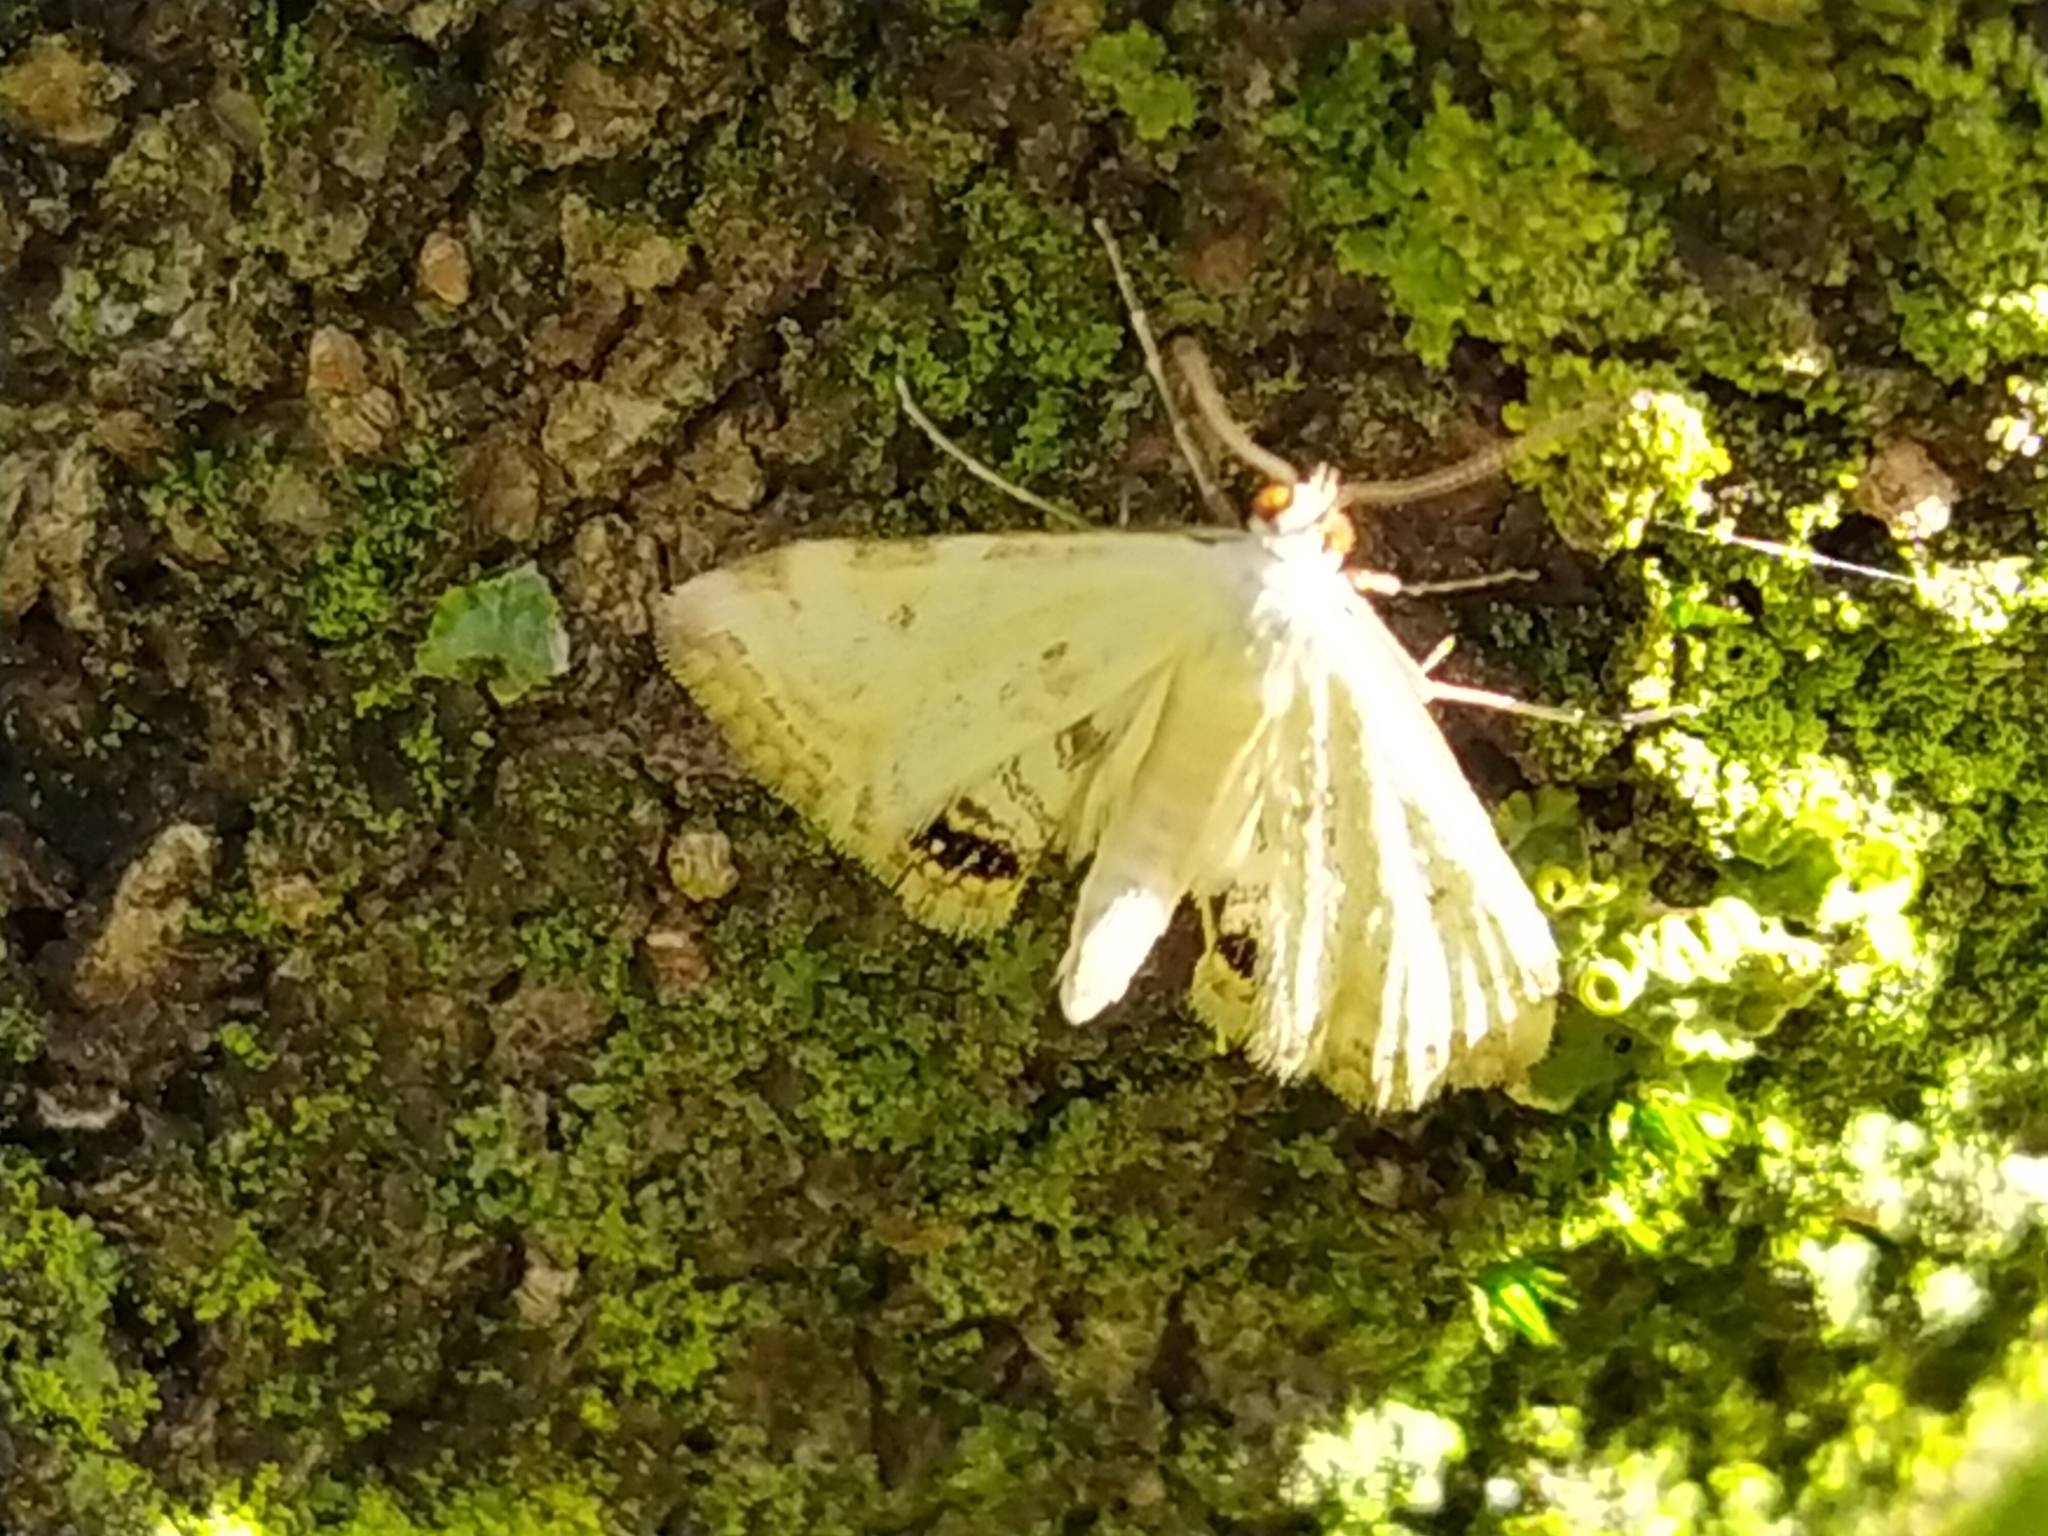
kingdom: Animalia
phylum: Arthropoda
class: Insecta
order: Lepidoptera
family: Crambidae
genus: Cataclysta
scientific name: Cataclysta lemnata
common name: Small china-mark
